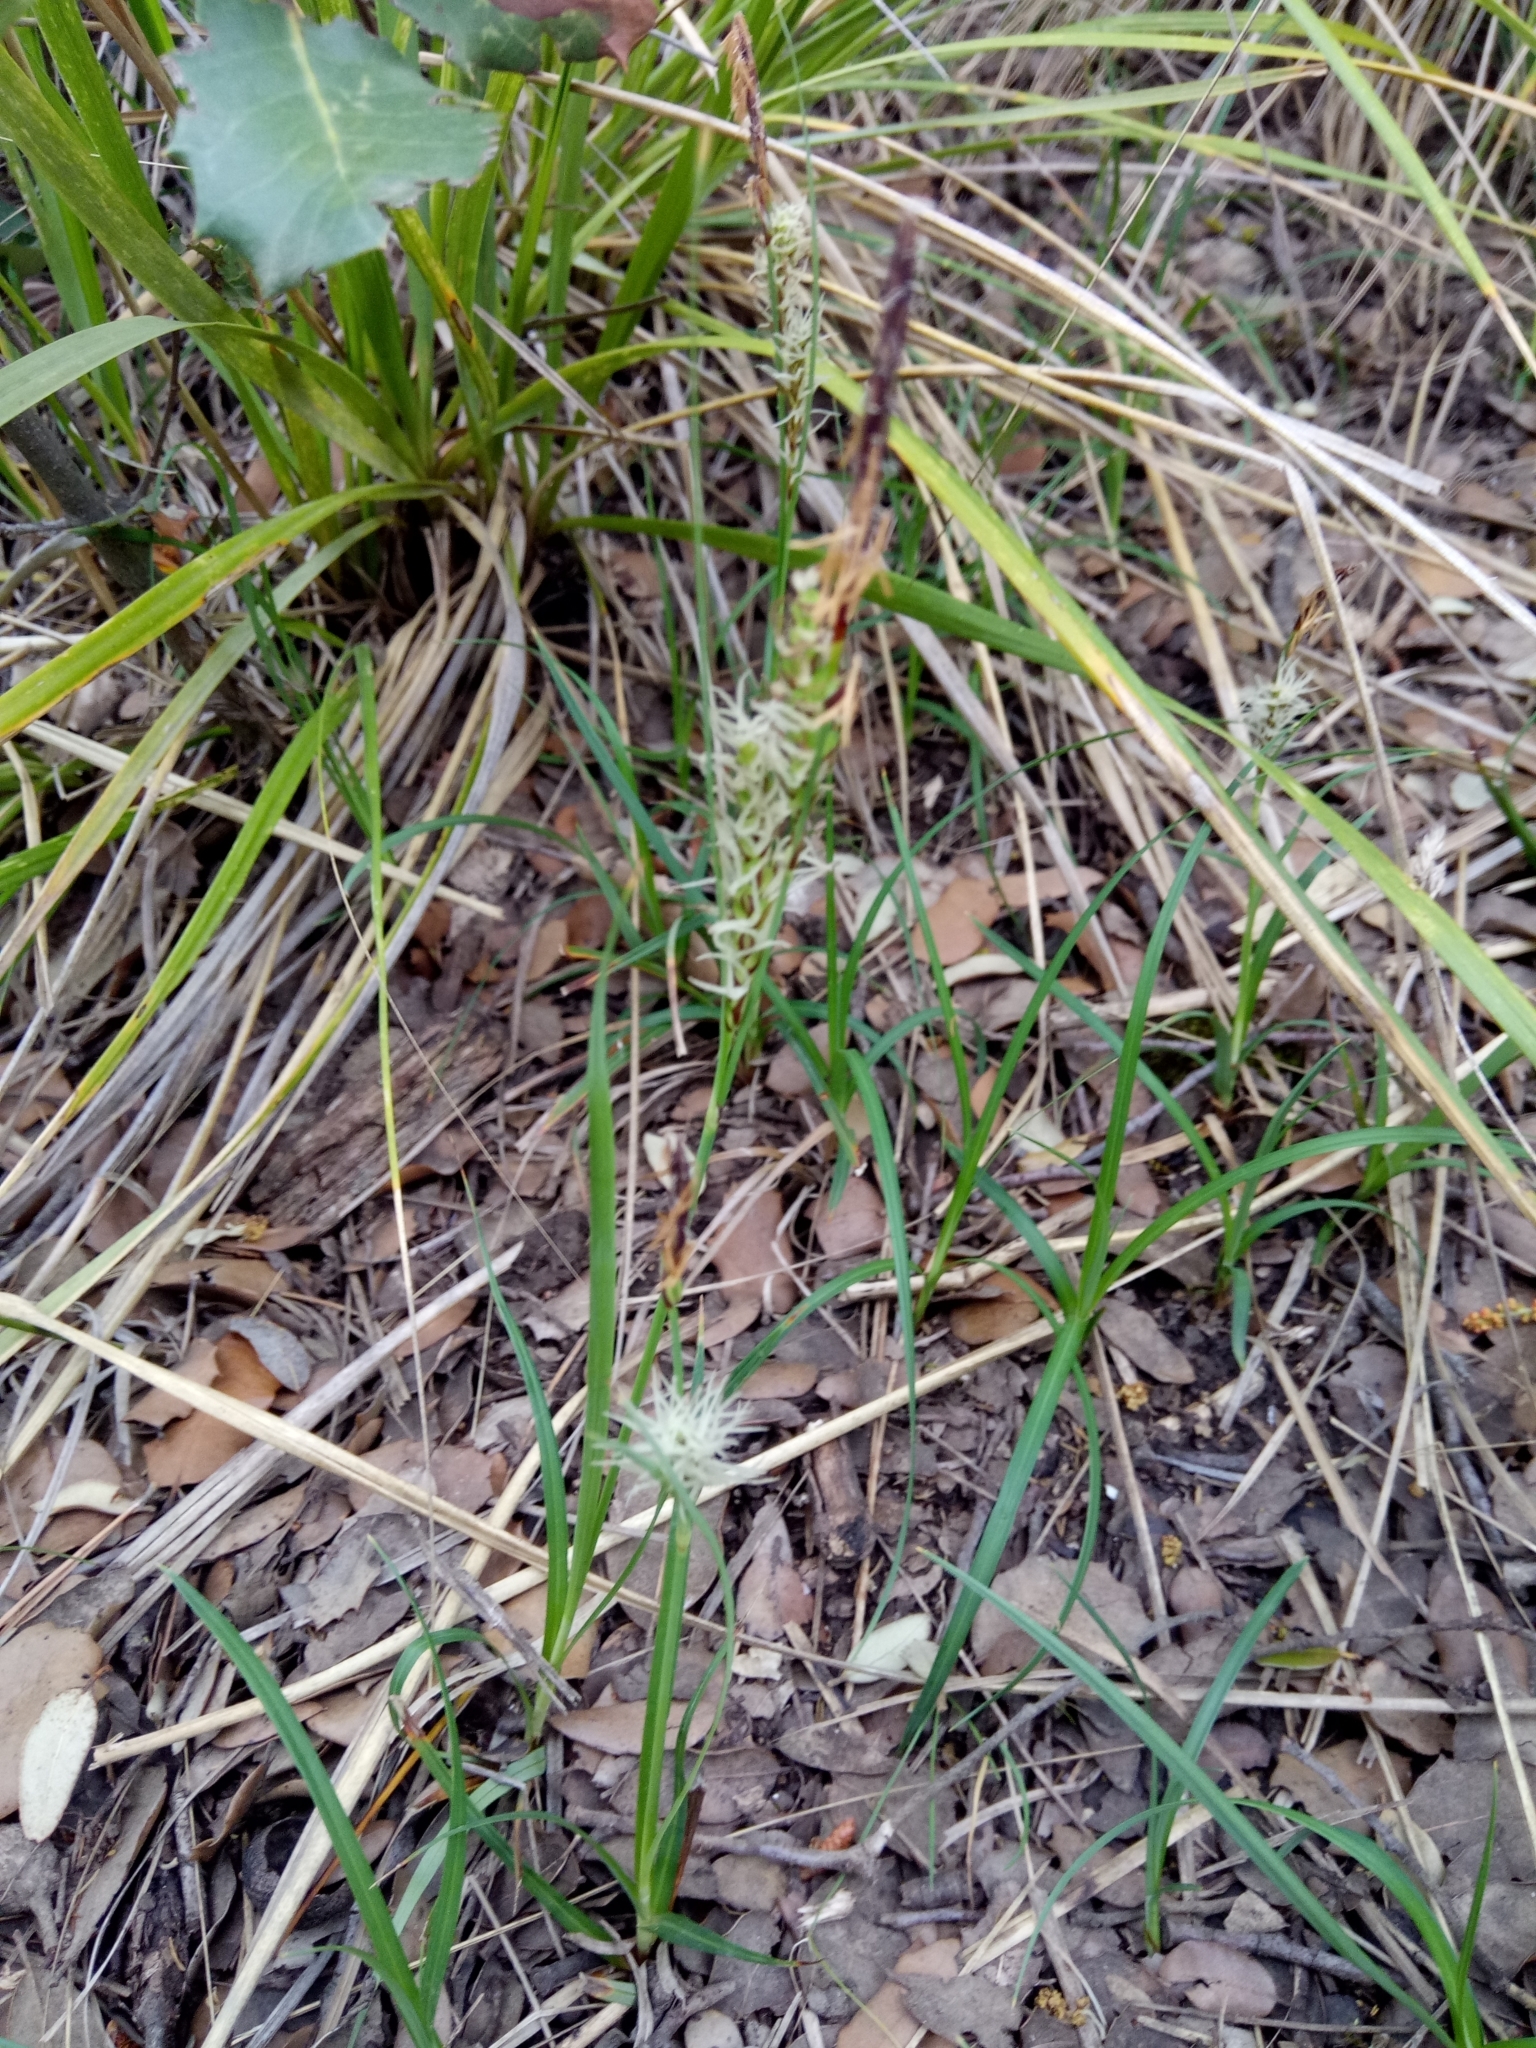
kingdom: Plantae
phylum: Tracheophyta
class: Liliopsida
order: Poales
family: Cyperaceae
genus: Carex
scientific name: Carex flacca
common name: Glaucous sedge
